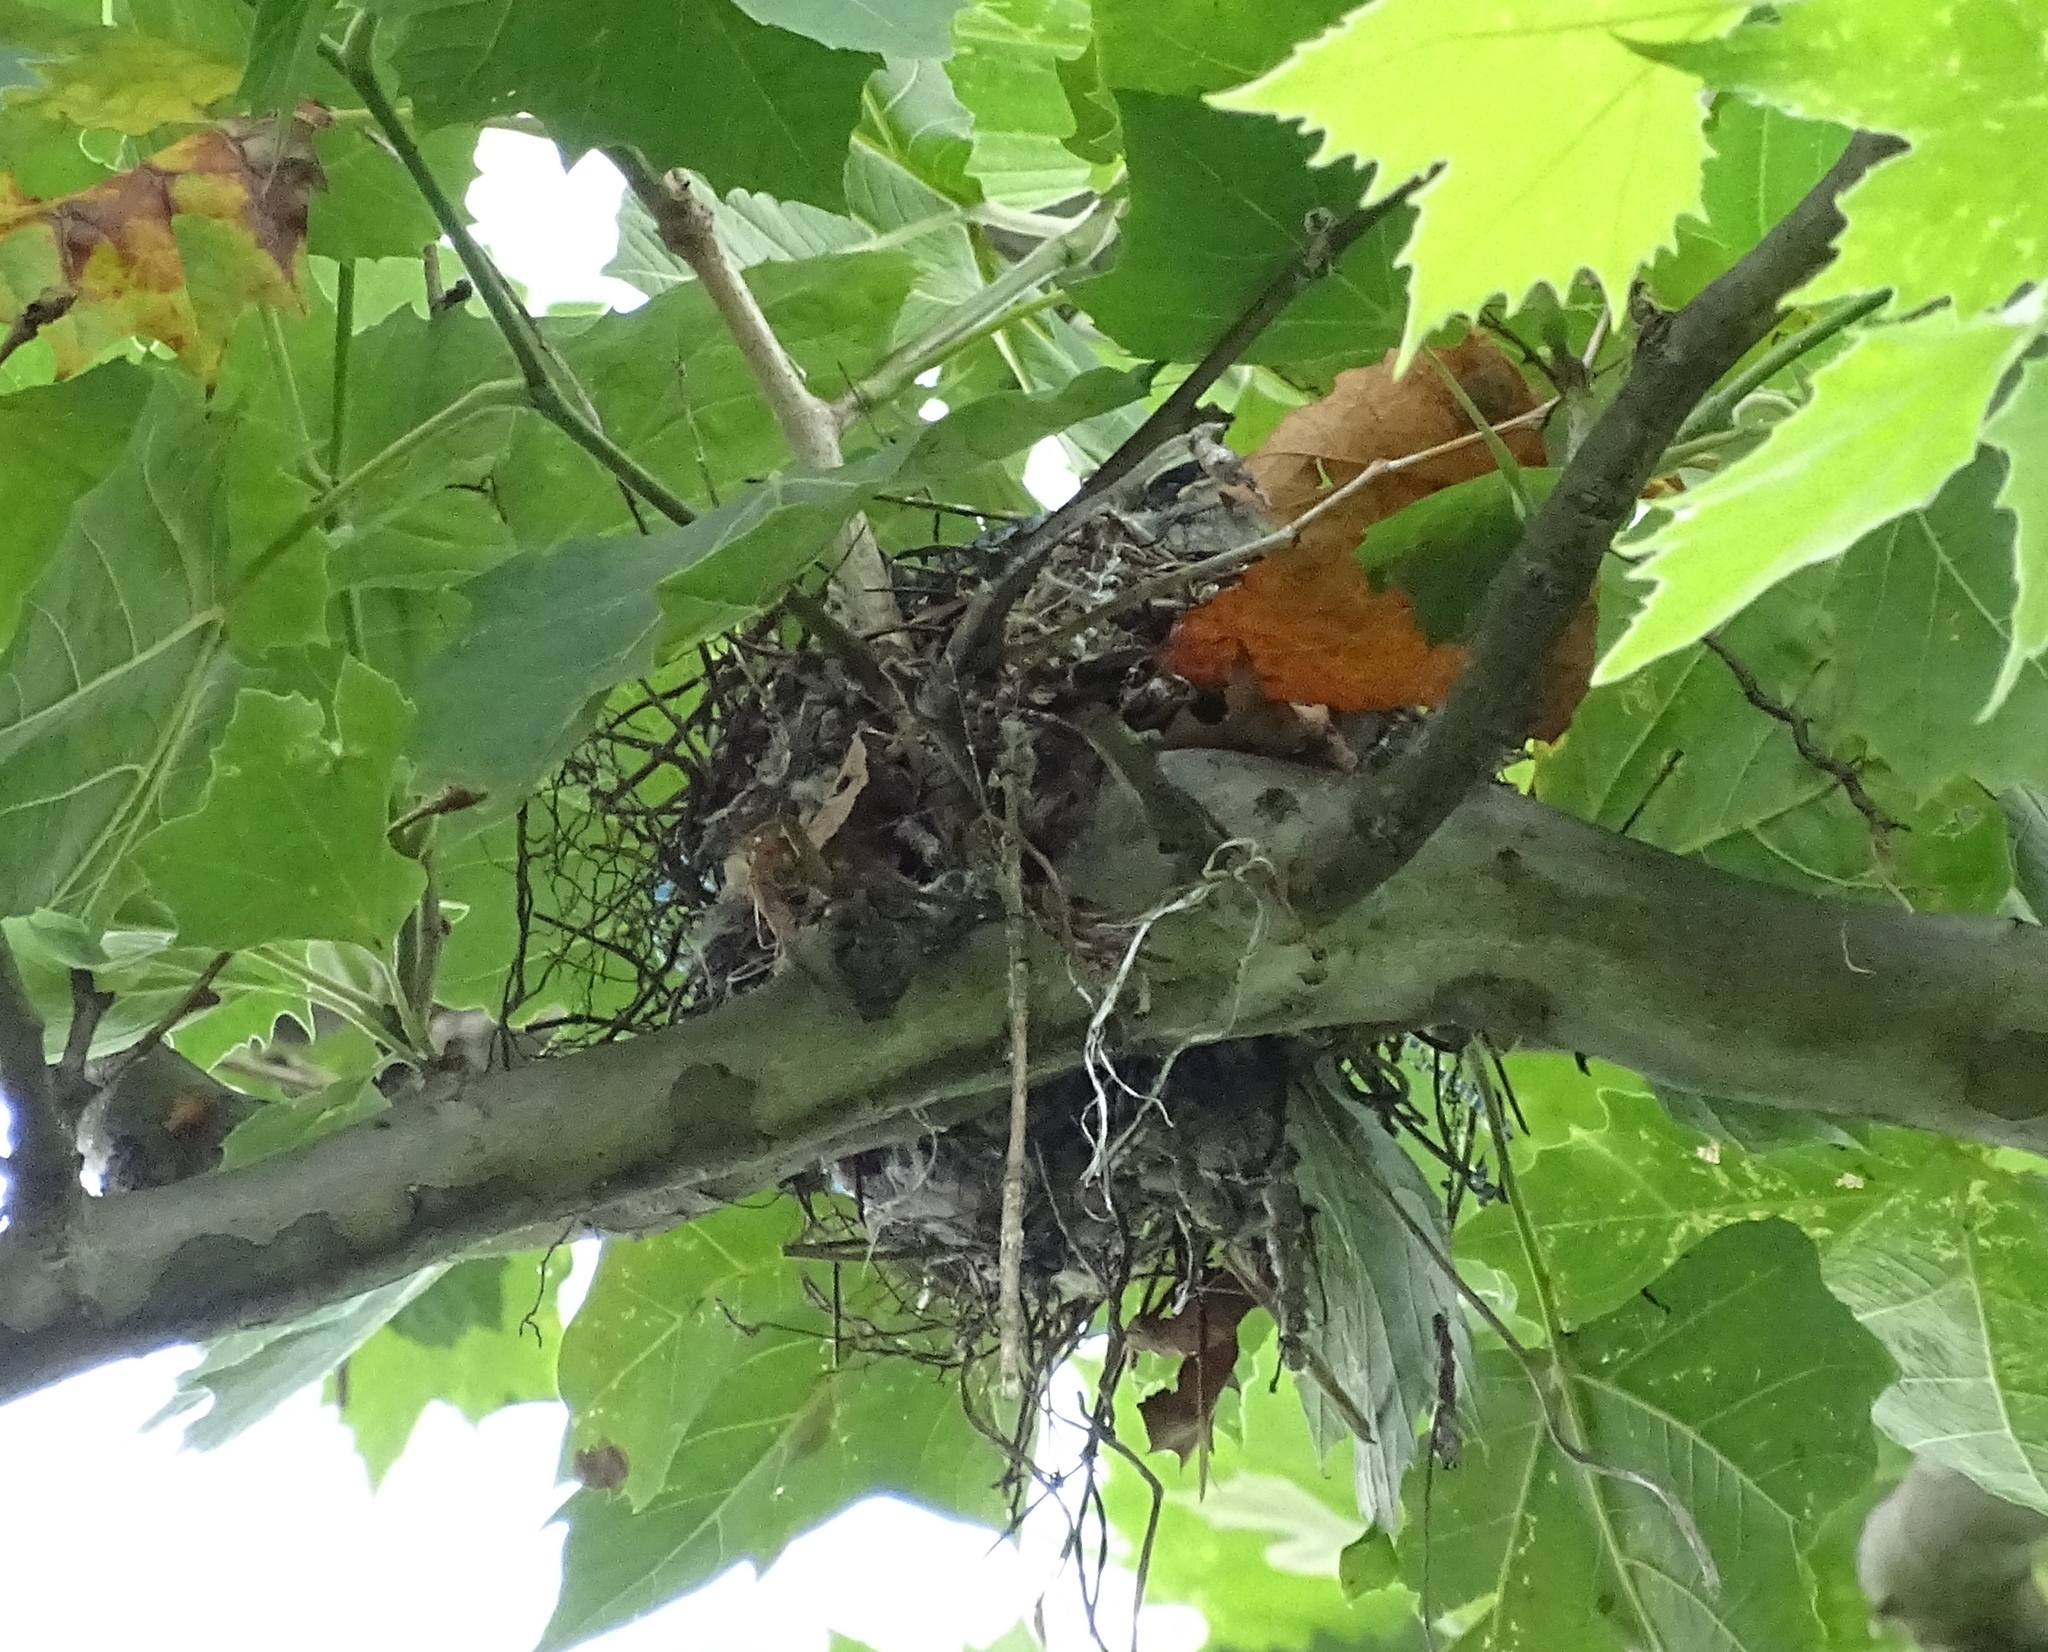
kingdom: Animalia
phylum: Chordata
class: Aves
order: Passeriformes
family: Tyrannidae
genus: Tyrannus
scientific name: Tyrannus tyrannus
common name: Eastern kingbird
